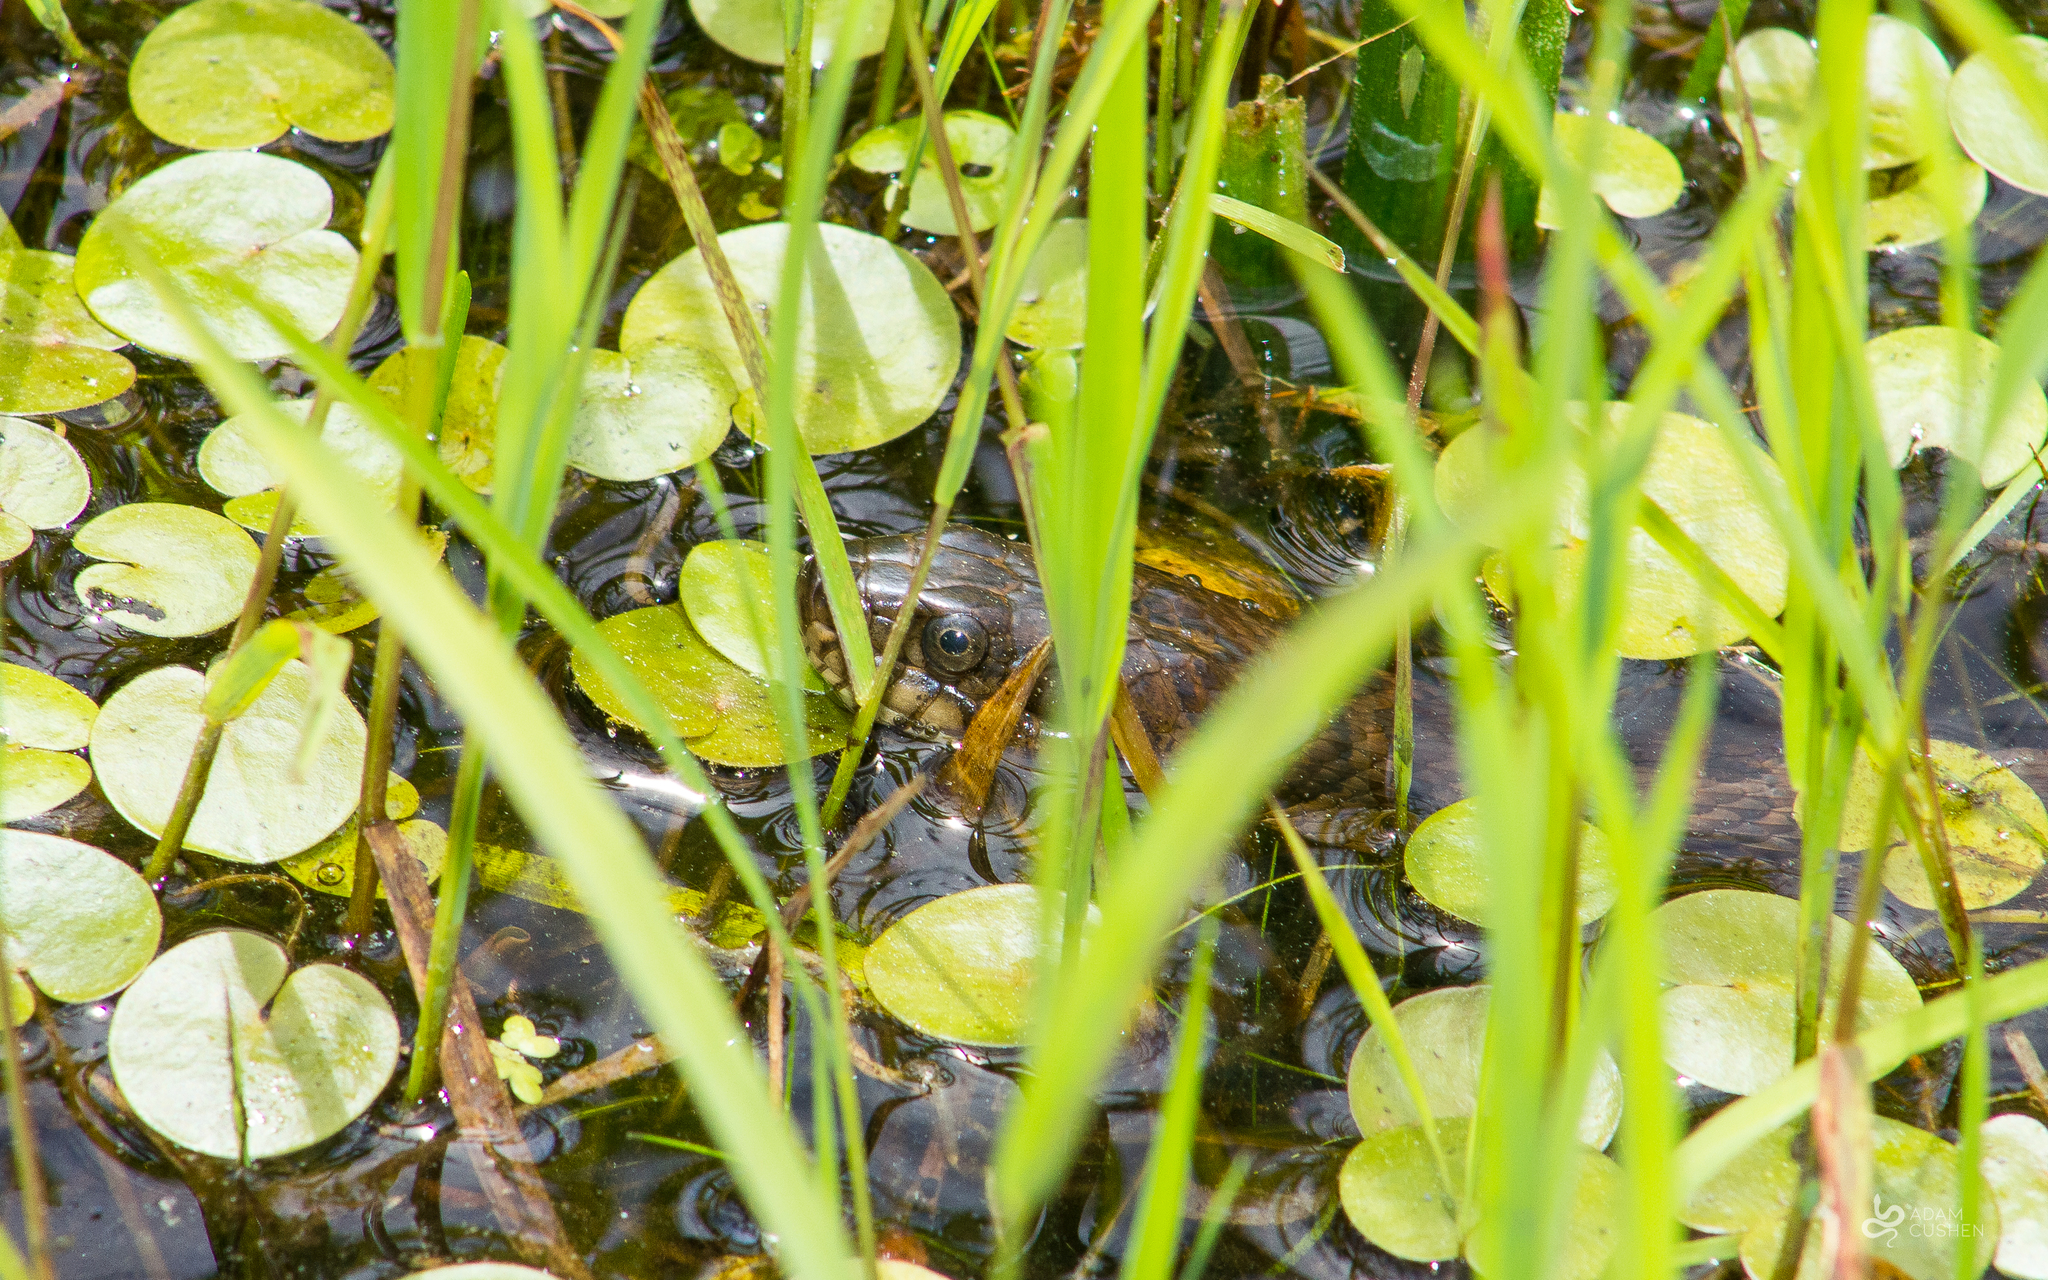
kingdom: Animalia
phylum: Chordata
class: Squamata
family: Colubridae
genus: Nerodia
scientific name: Nerodia sipedon
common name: Northern water snake
